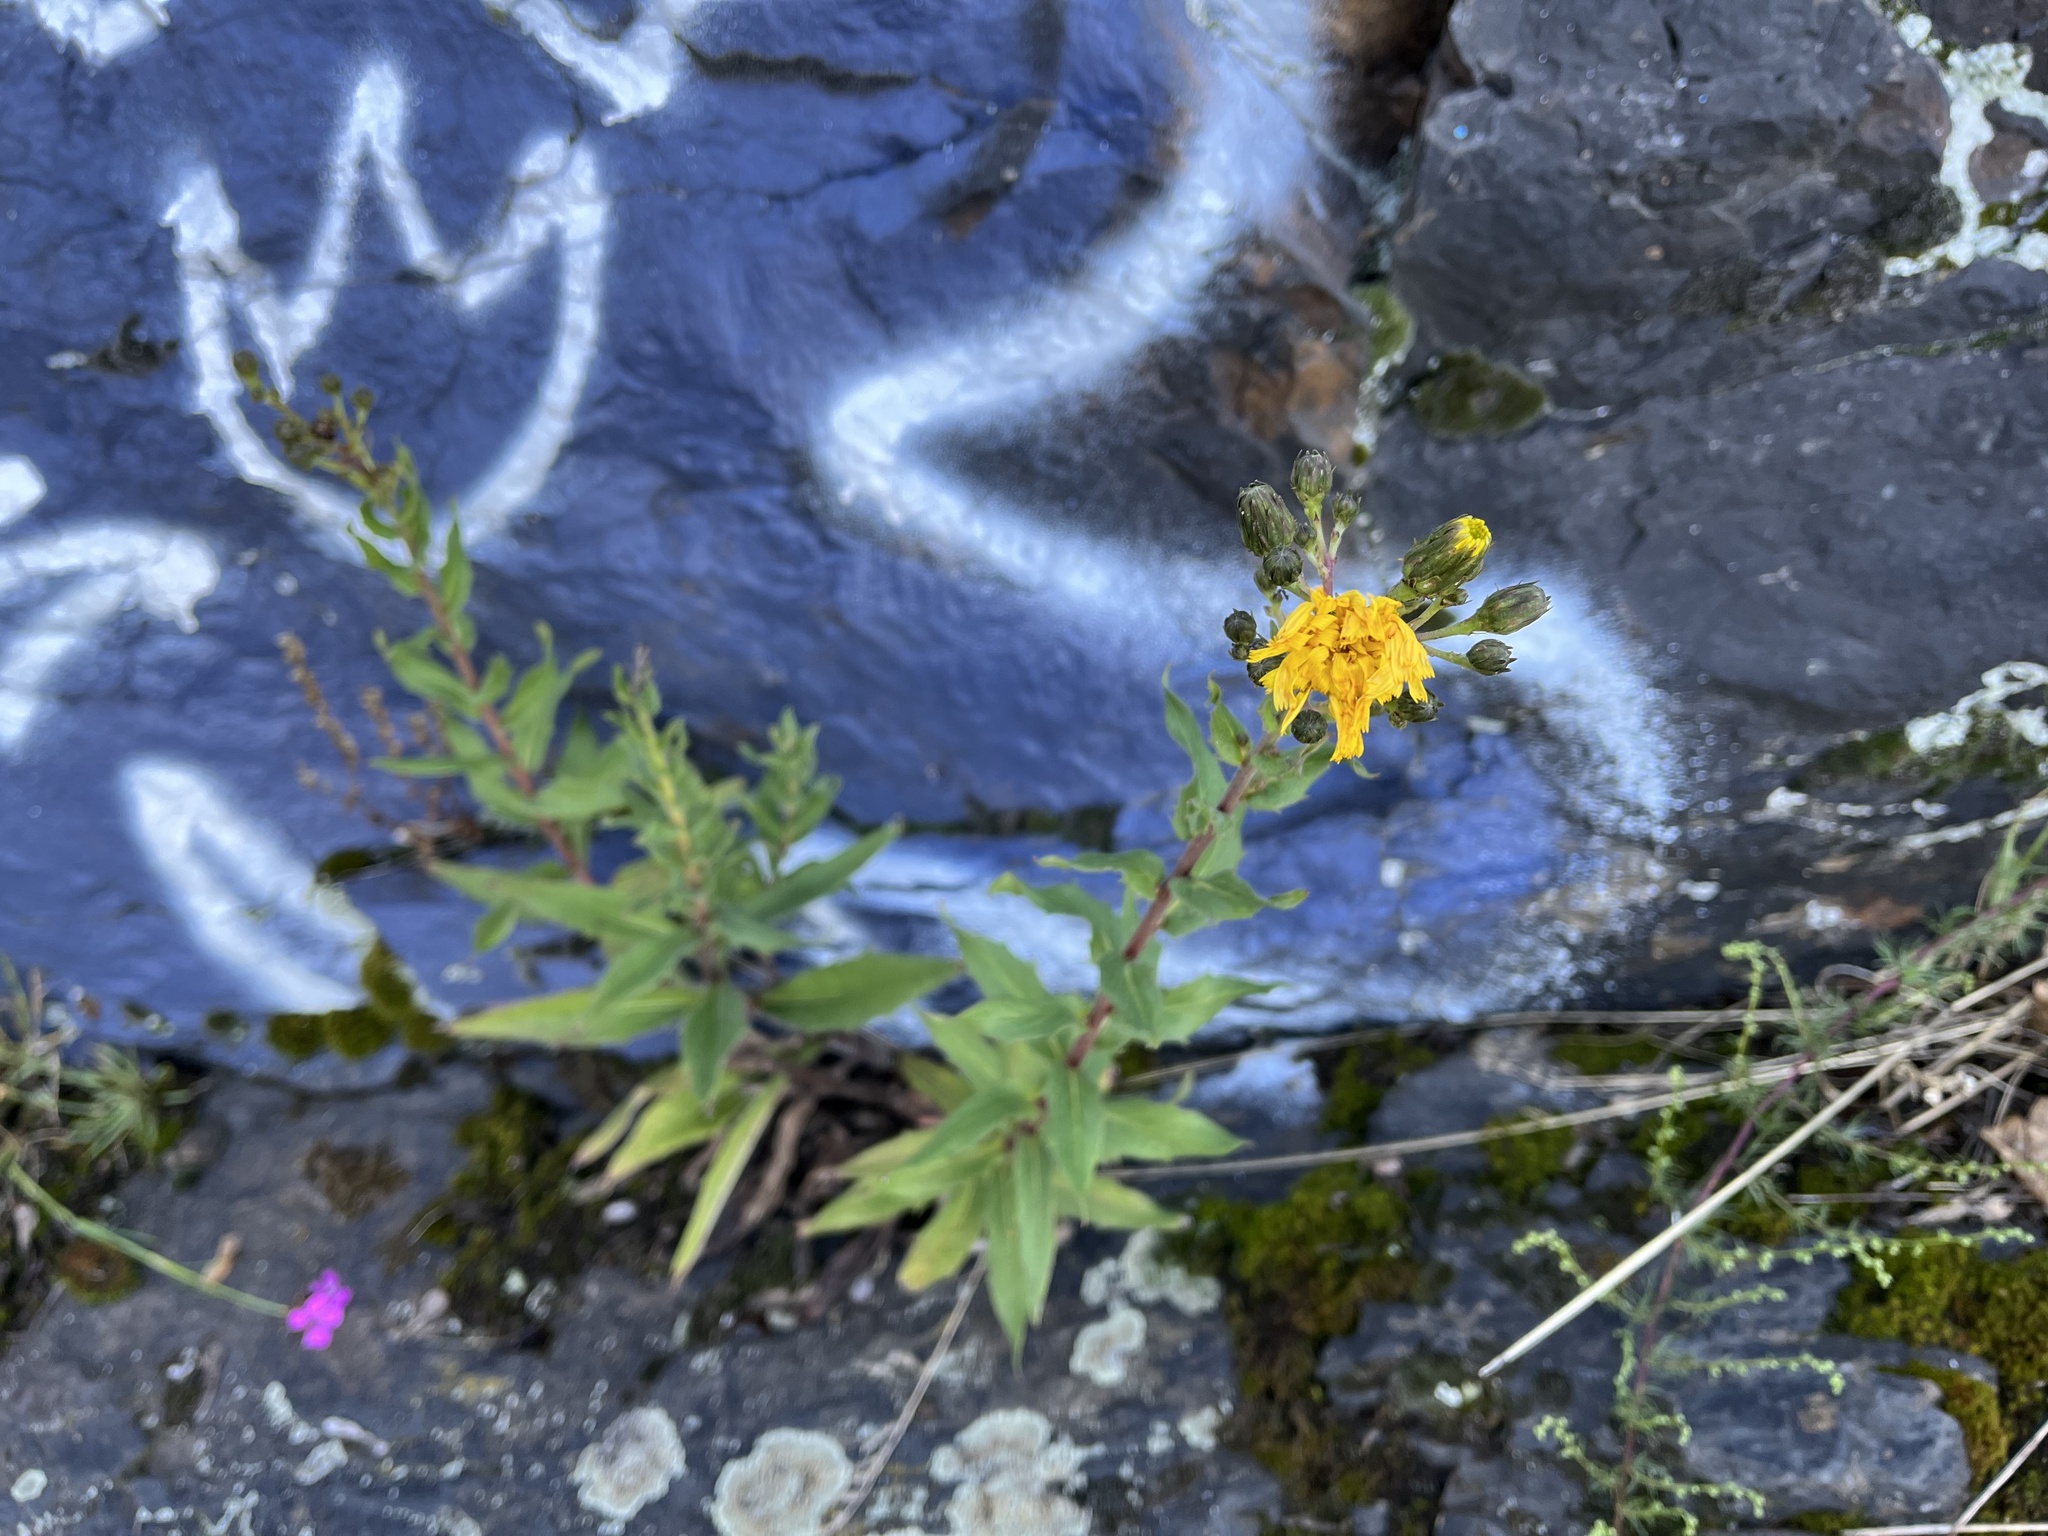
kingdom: Plantae
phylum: Tracheophyta
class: Magnoliopsida
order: Asterales
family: Asteraceae
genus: Hieracium
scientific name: Hieracium sabaudum
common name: New england hawkweed
